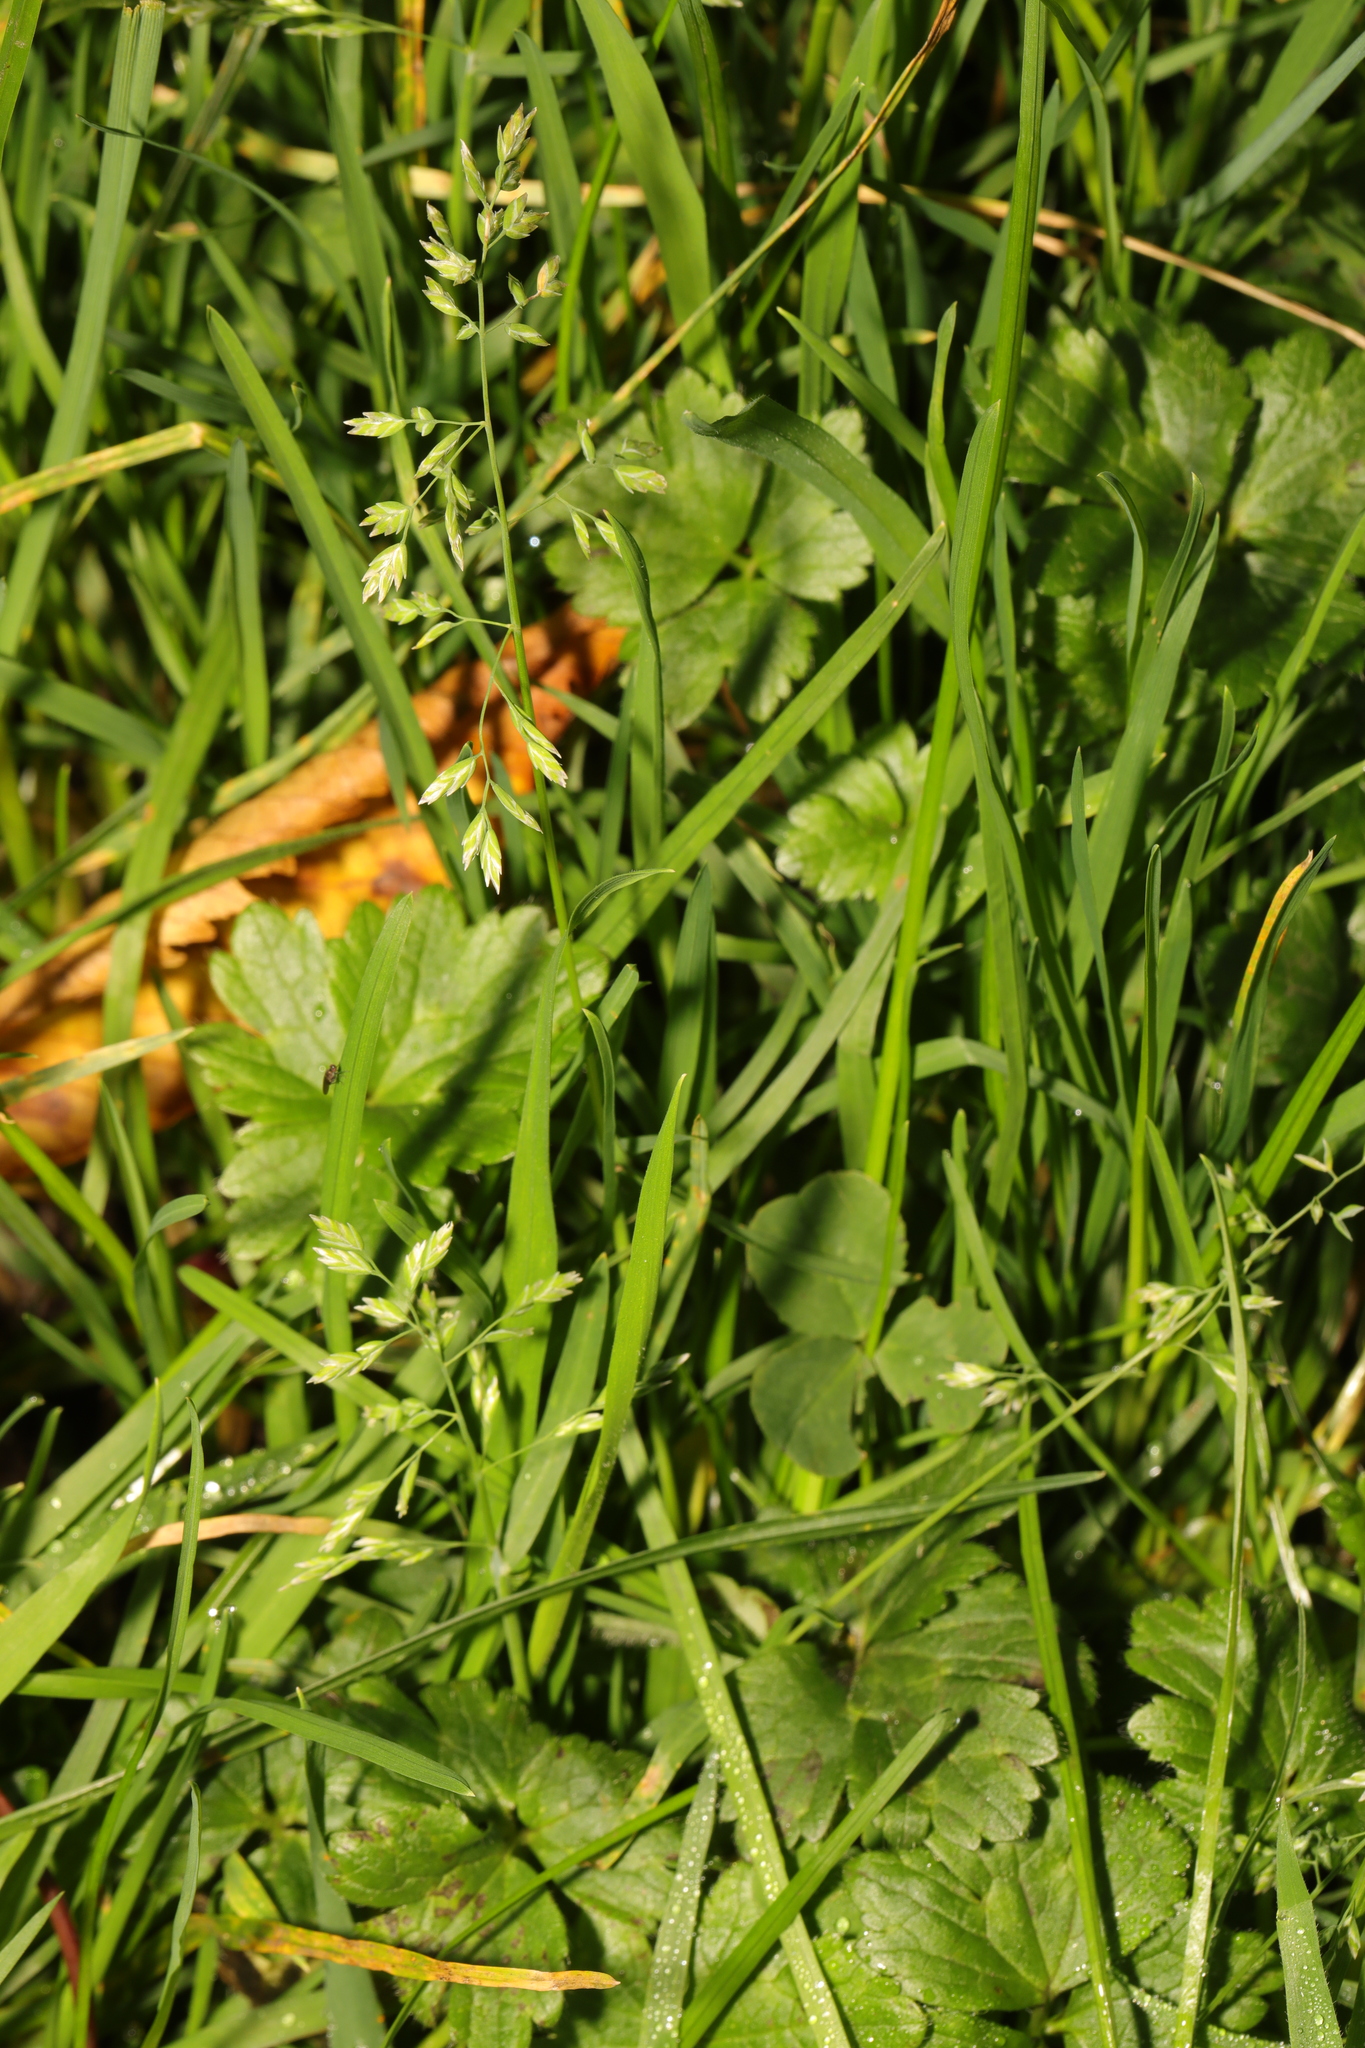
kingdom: Plantae
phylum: Tracheophyta
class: Liliopsida
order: Poales
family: Poaceae
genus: Poa
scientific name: Poa annua
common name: Annual bluegrass
